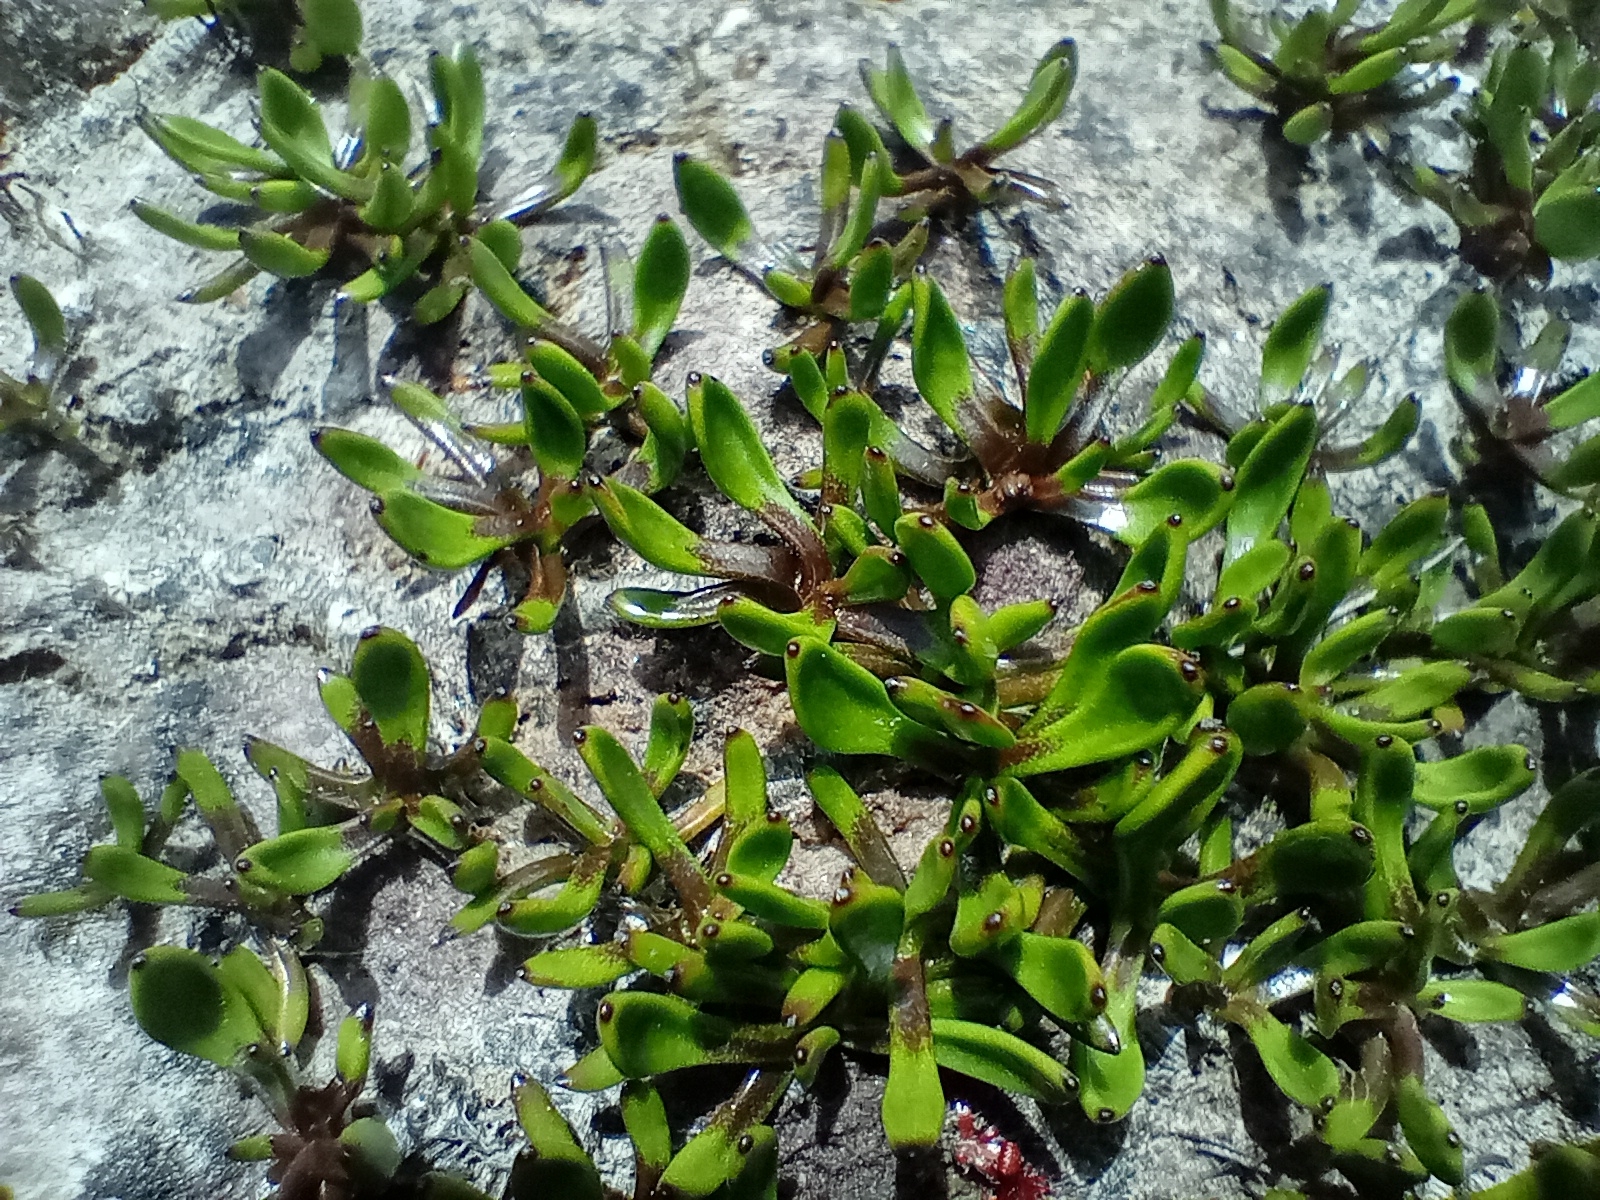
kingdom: Plantae
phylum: Tracheophyta
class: Magnoliopsida
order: Asterales
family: Menyanthaceae
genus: Liparophyllum
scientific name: Liparophyllum gunnii
